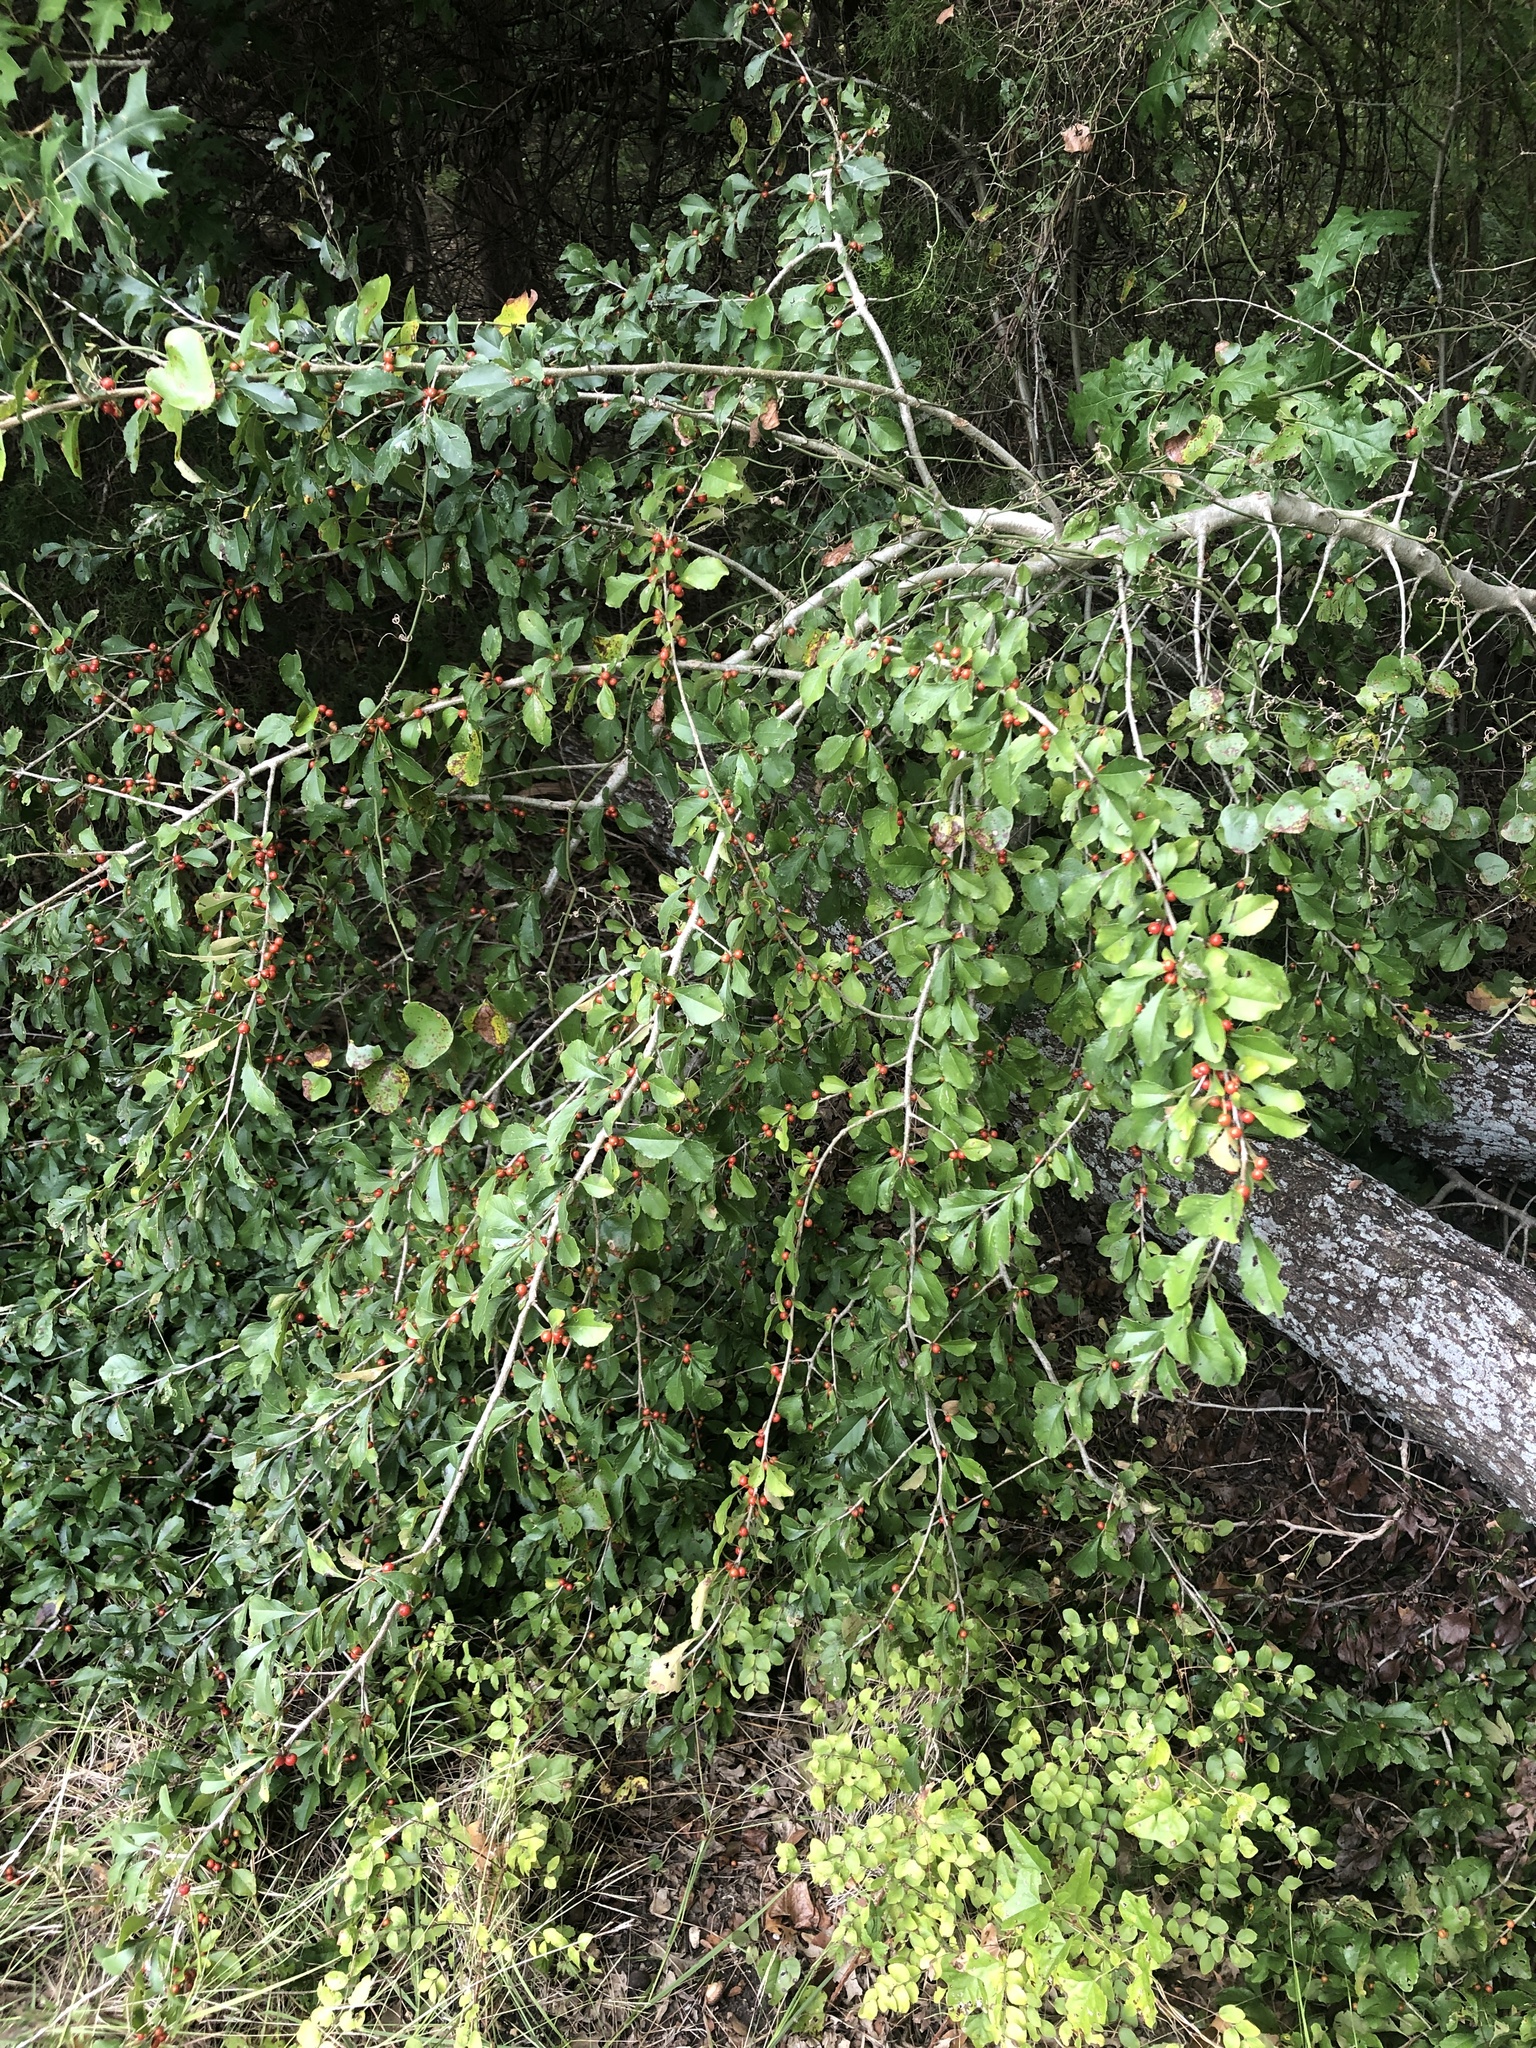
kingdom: Plantae
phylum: Tracheophyta
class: Magnoliopsida
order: Aquifoliales
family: Aquifoliaceae
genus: Ilex
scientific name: Ilex decidua
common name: Possum-haw
